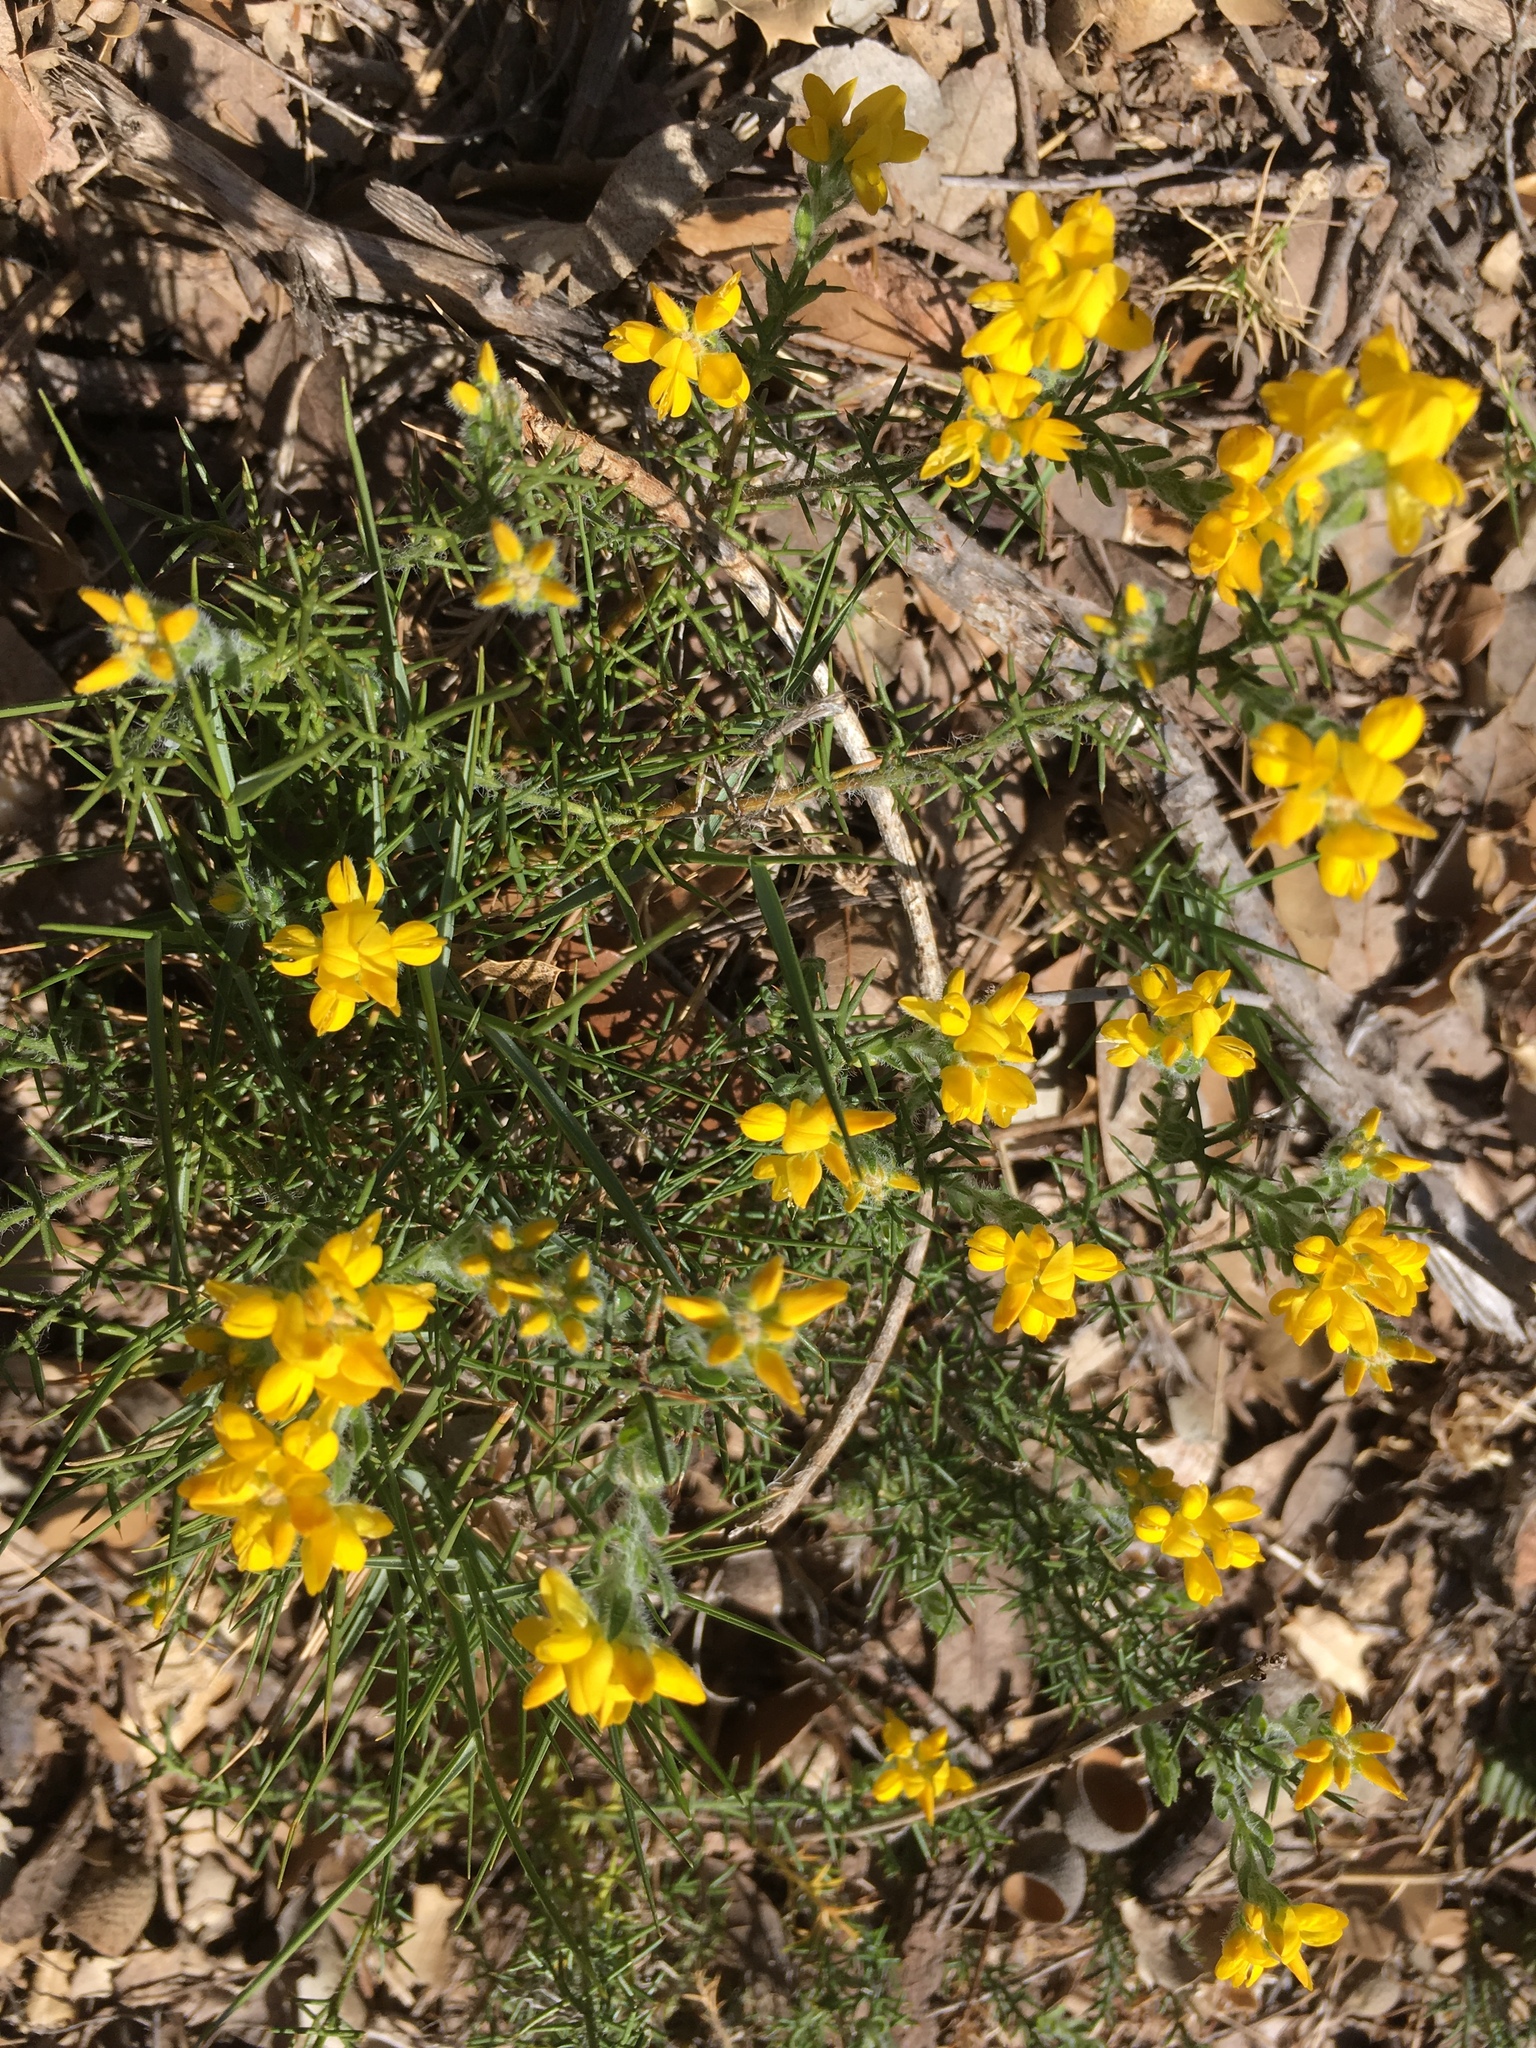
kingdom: Plantae
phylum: Tracheophyta
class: Magnoliopsida
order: Fabales
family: Fabaceae
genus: Genista
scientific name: Genista hispanica
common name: Spanish gorse
